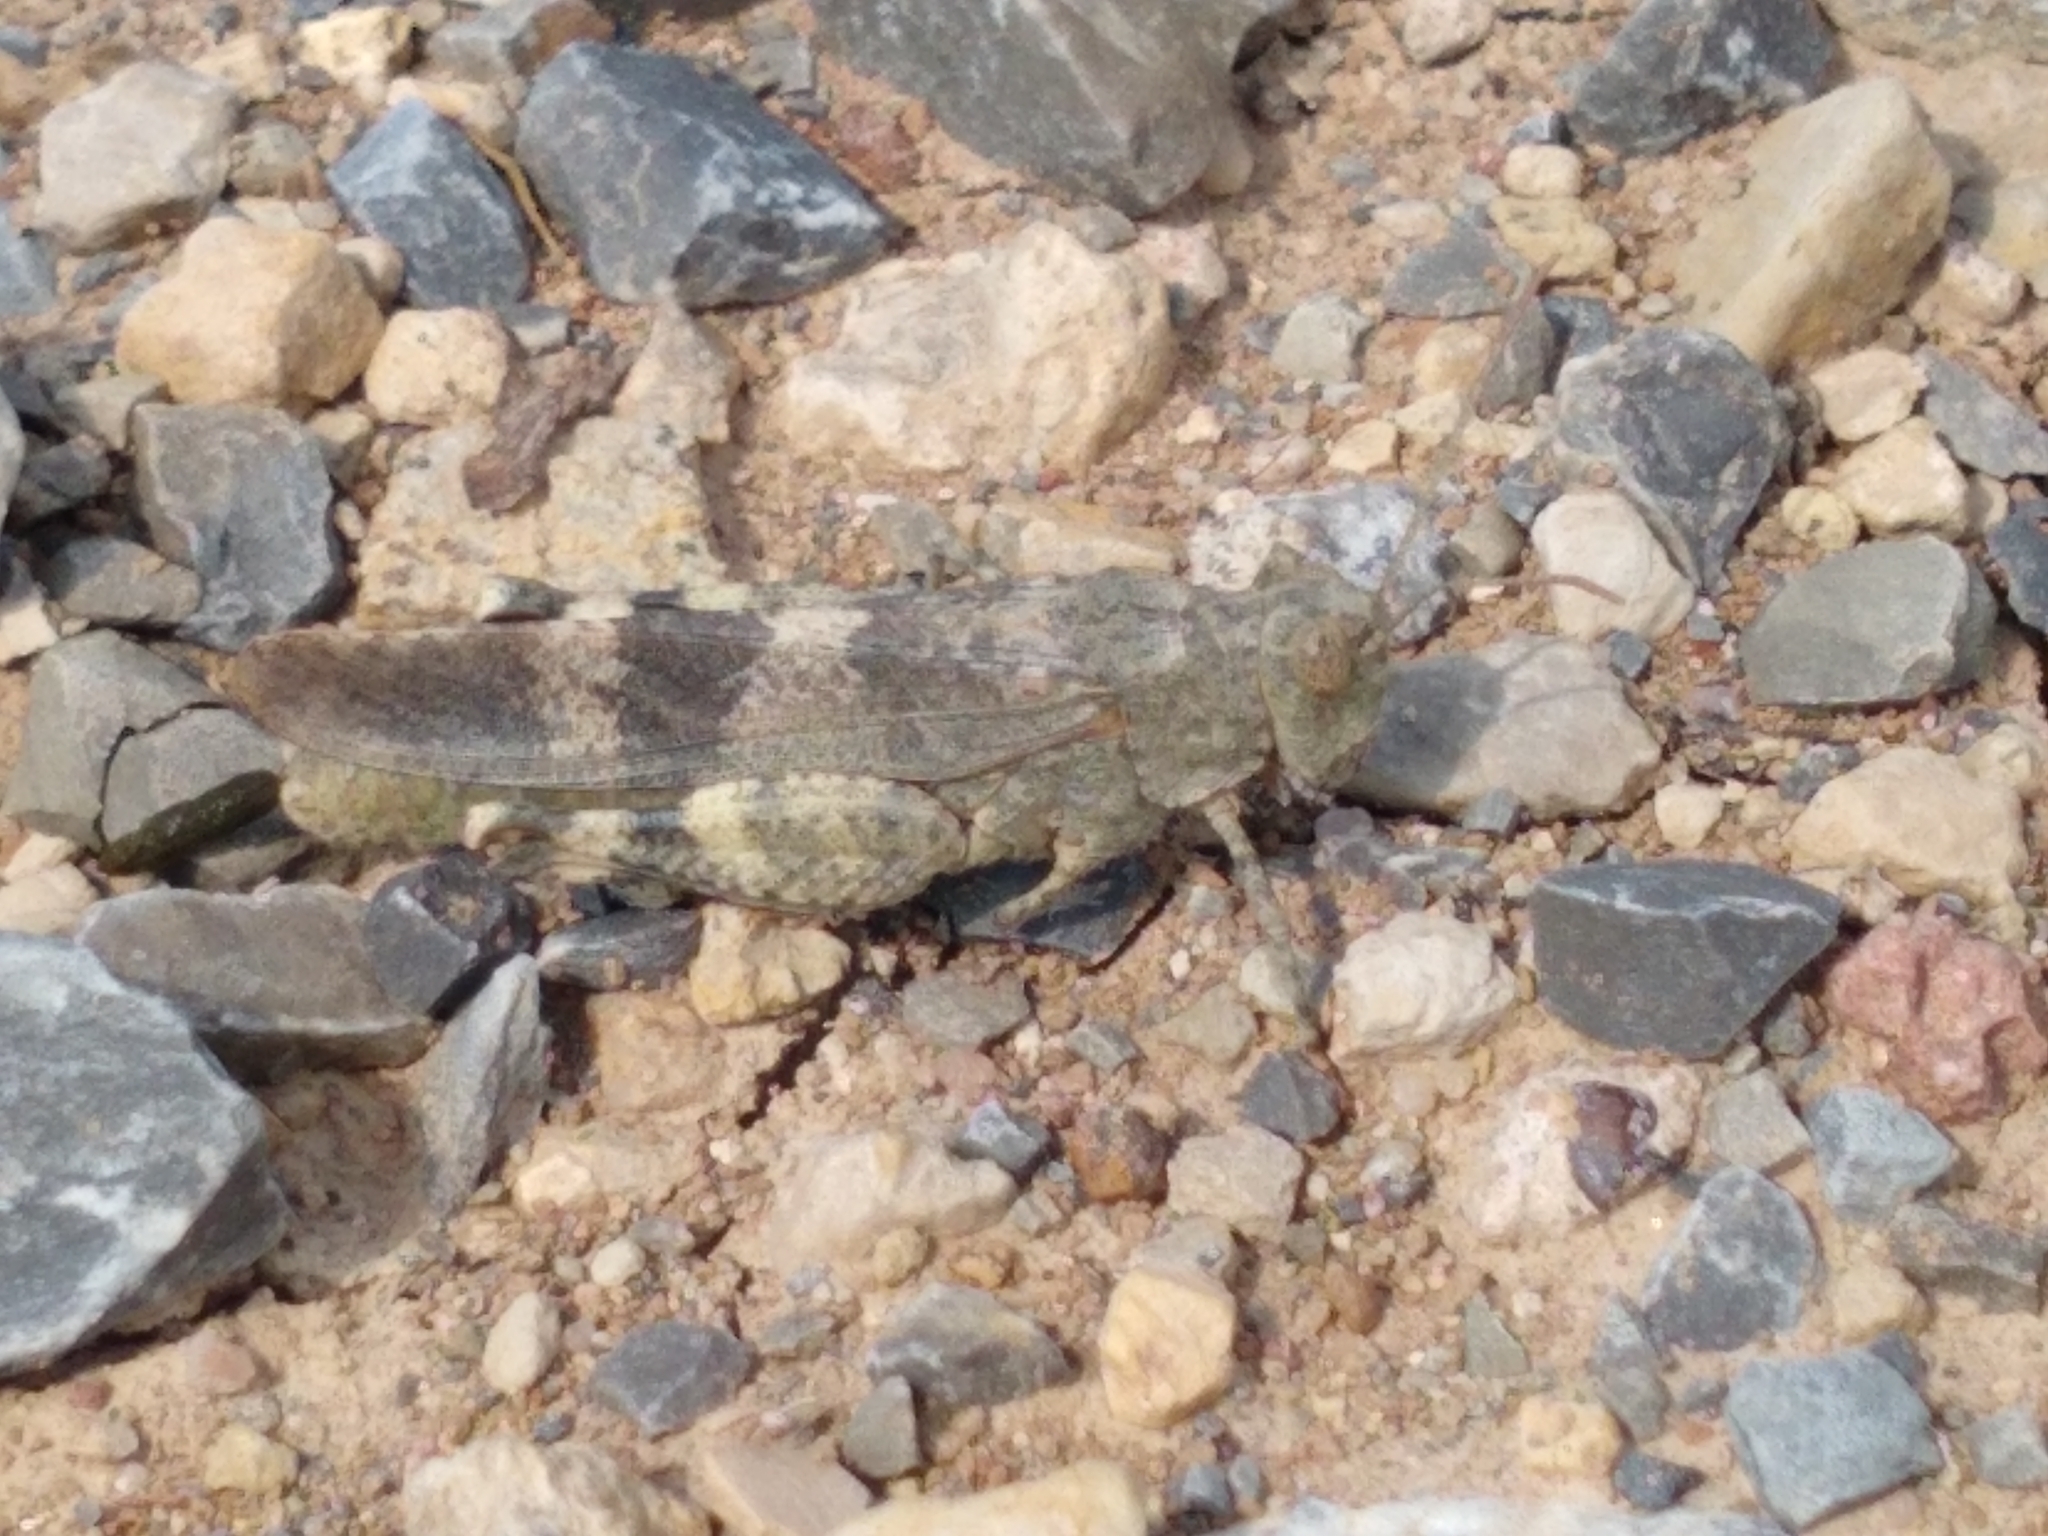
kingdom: Animalia
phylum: Arthropoda
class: Insecta
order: Orthoptera
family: Acrididae
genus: Oedipoda
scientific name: Oedipoda germanica
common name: Red band-winged grasshopper
